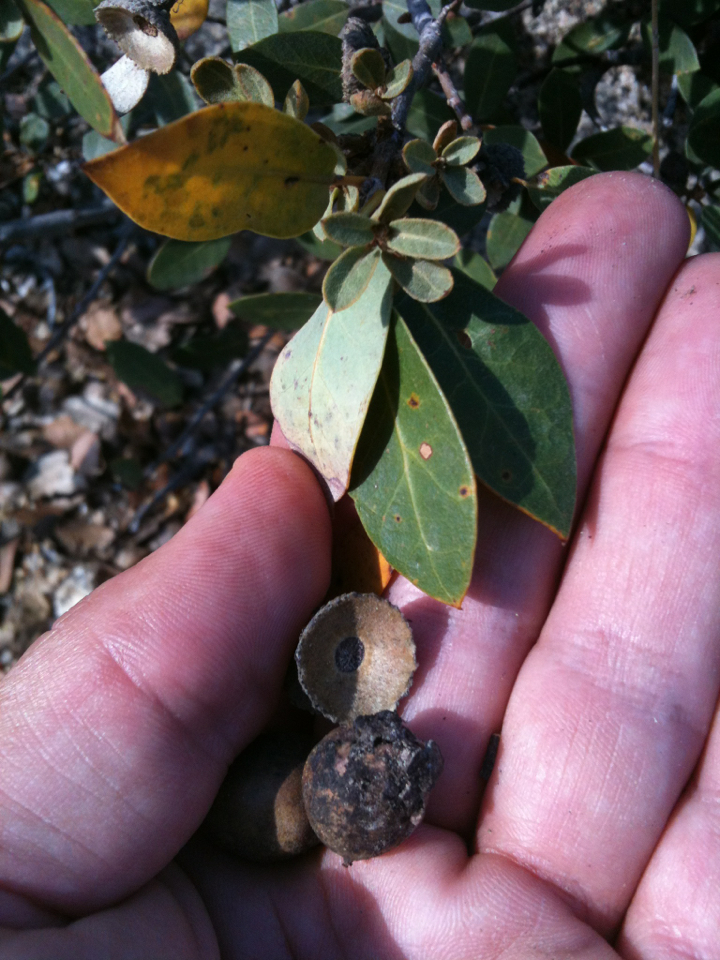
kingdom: Plantae
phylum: Tracheophyta
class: Magnoliopsida
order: Fagales
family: Fagaceae
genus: Quercus
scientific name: Quercus vacciniifolia
